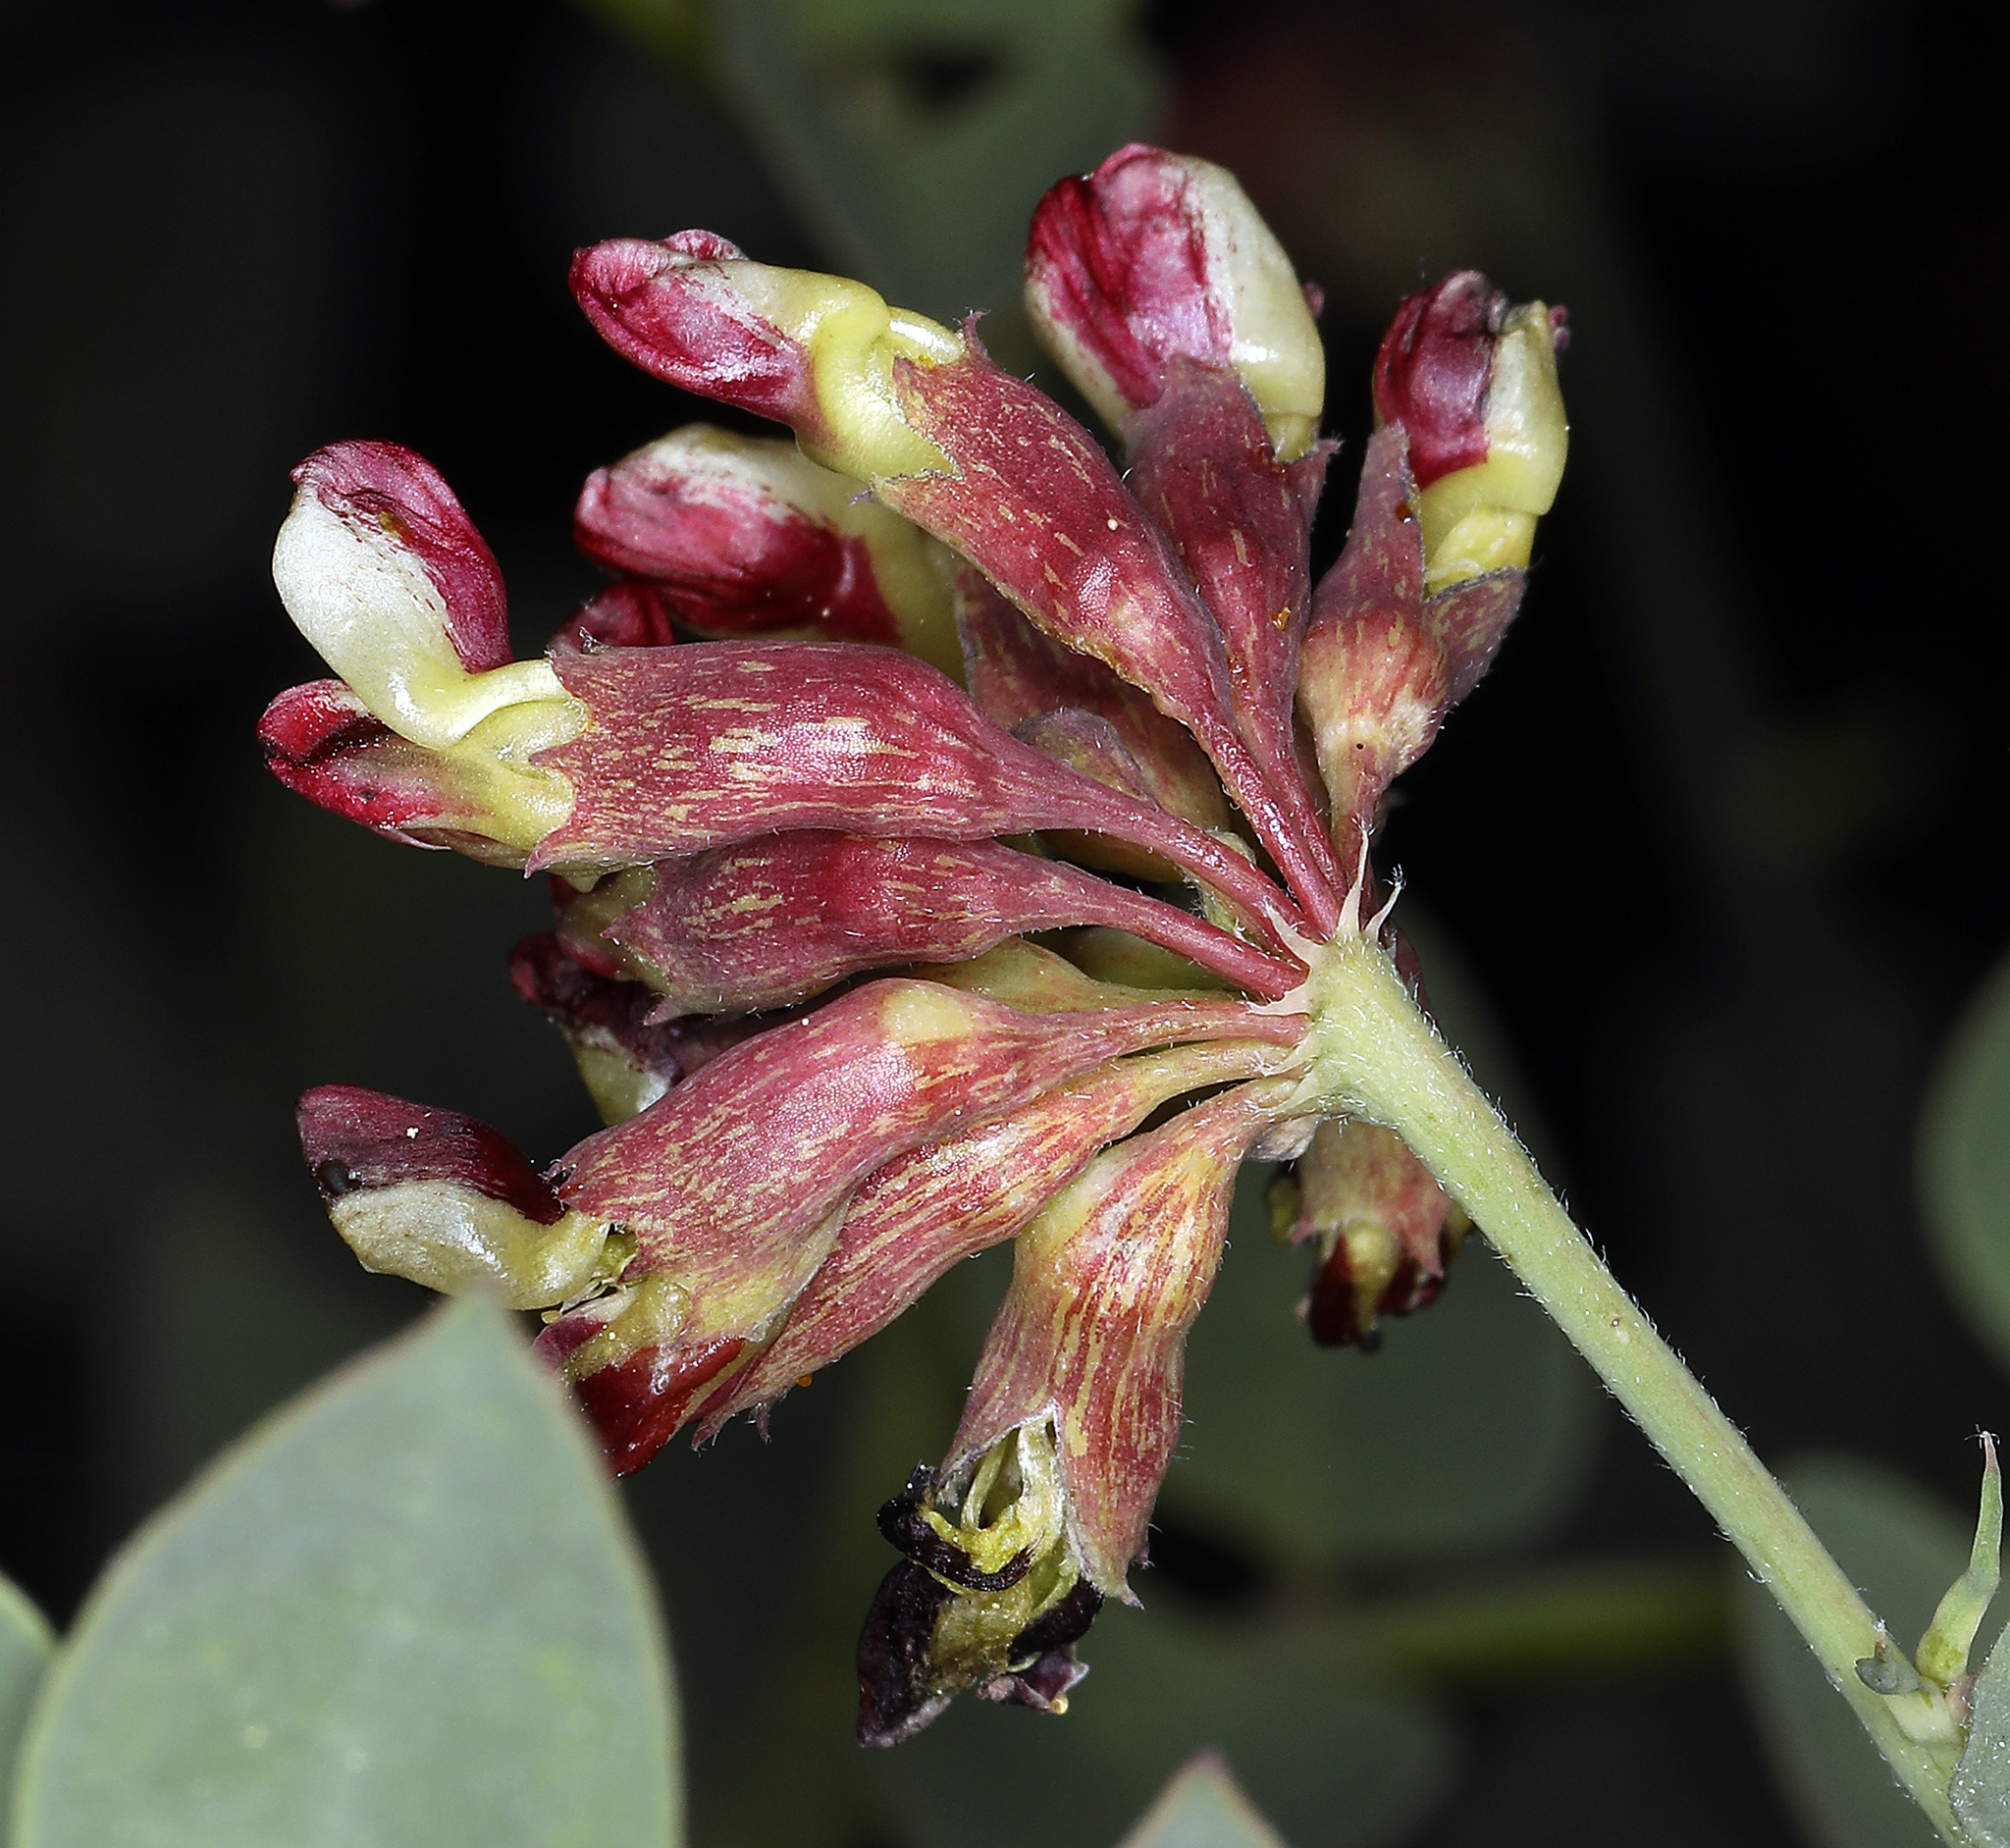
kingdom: Plantae
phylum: Tracheophyta
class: Magnoliopsida
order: Fabales
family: Fabaceae
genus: Hosackia
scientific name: Hosackia crassifolia
